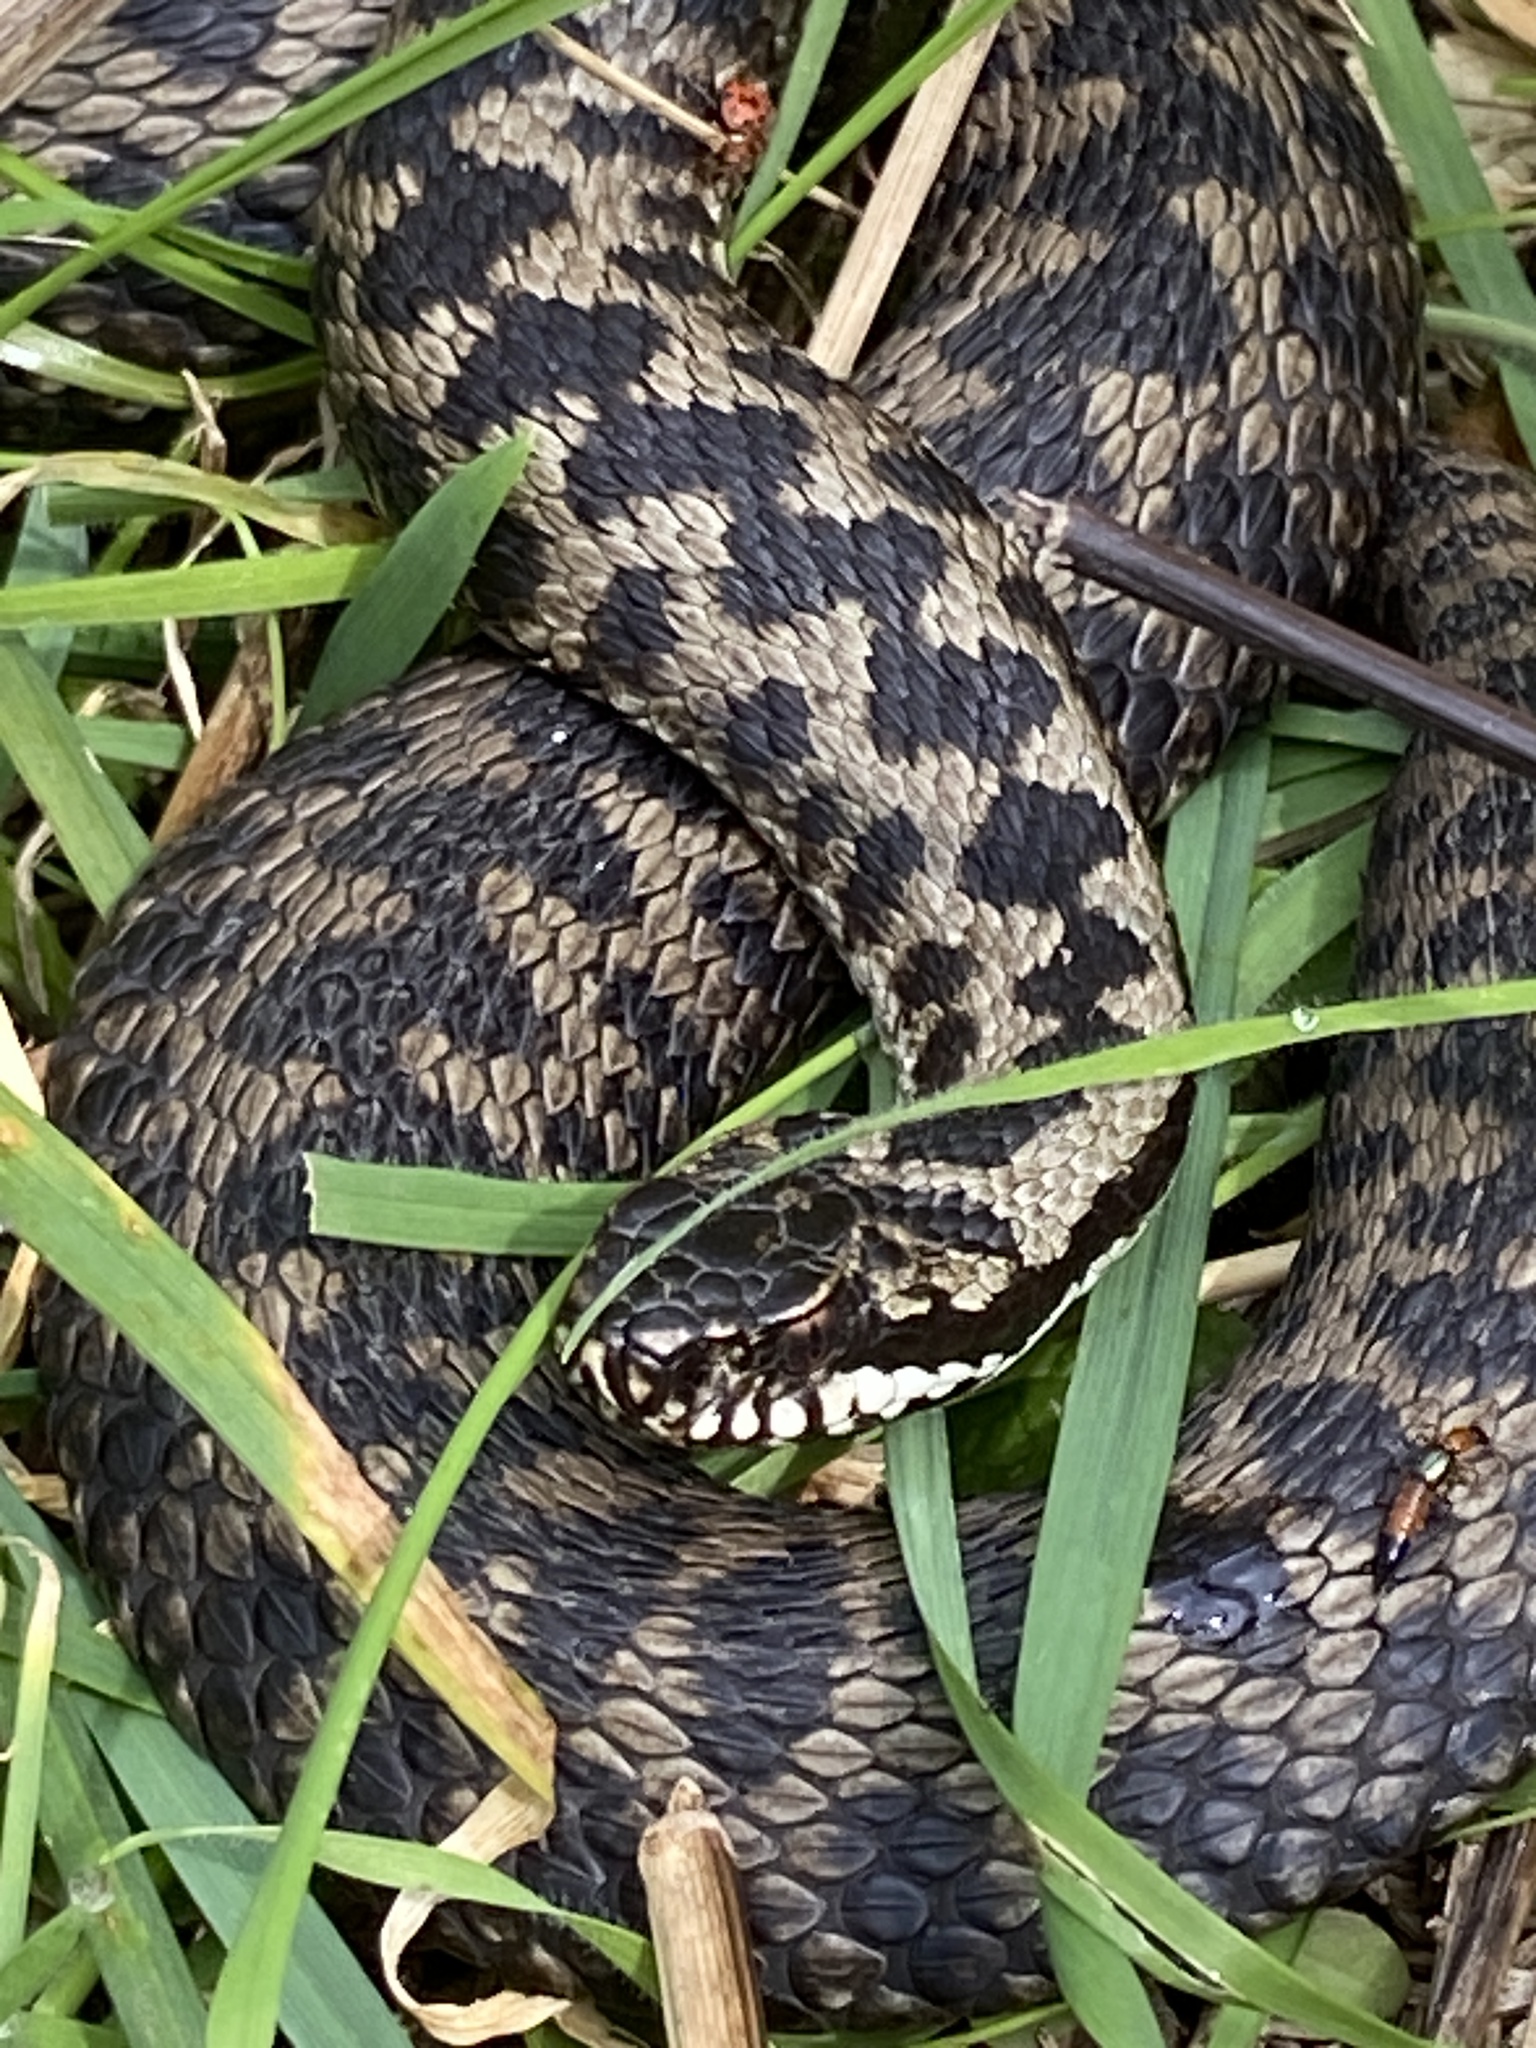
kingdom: Animalia
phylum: Chordata
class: Squamata
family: Viperidae
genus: Vipera
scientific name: Vipera berus
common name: Adder
